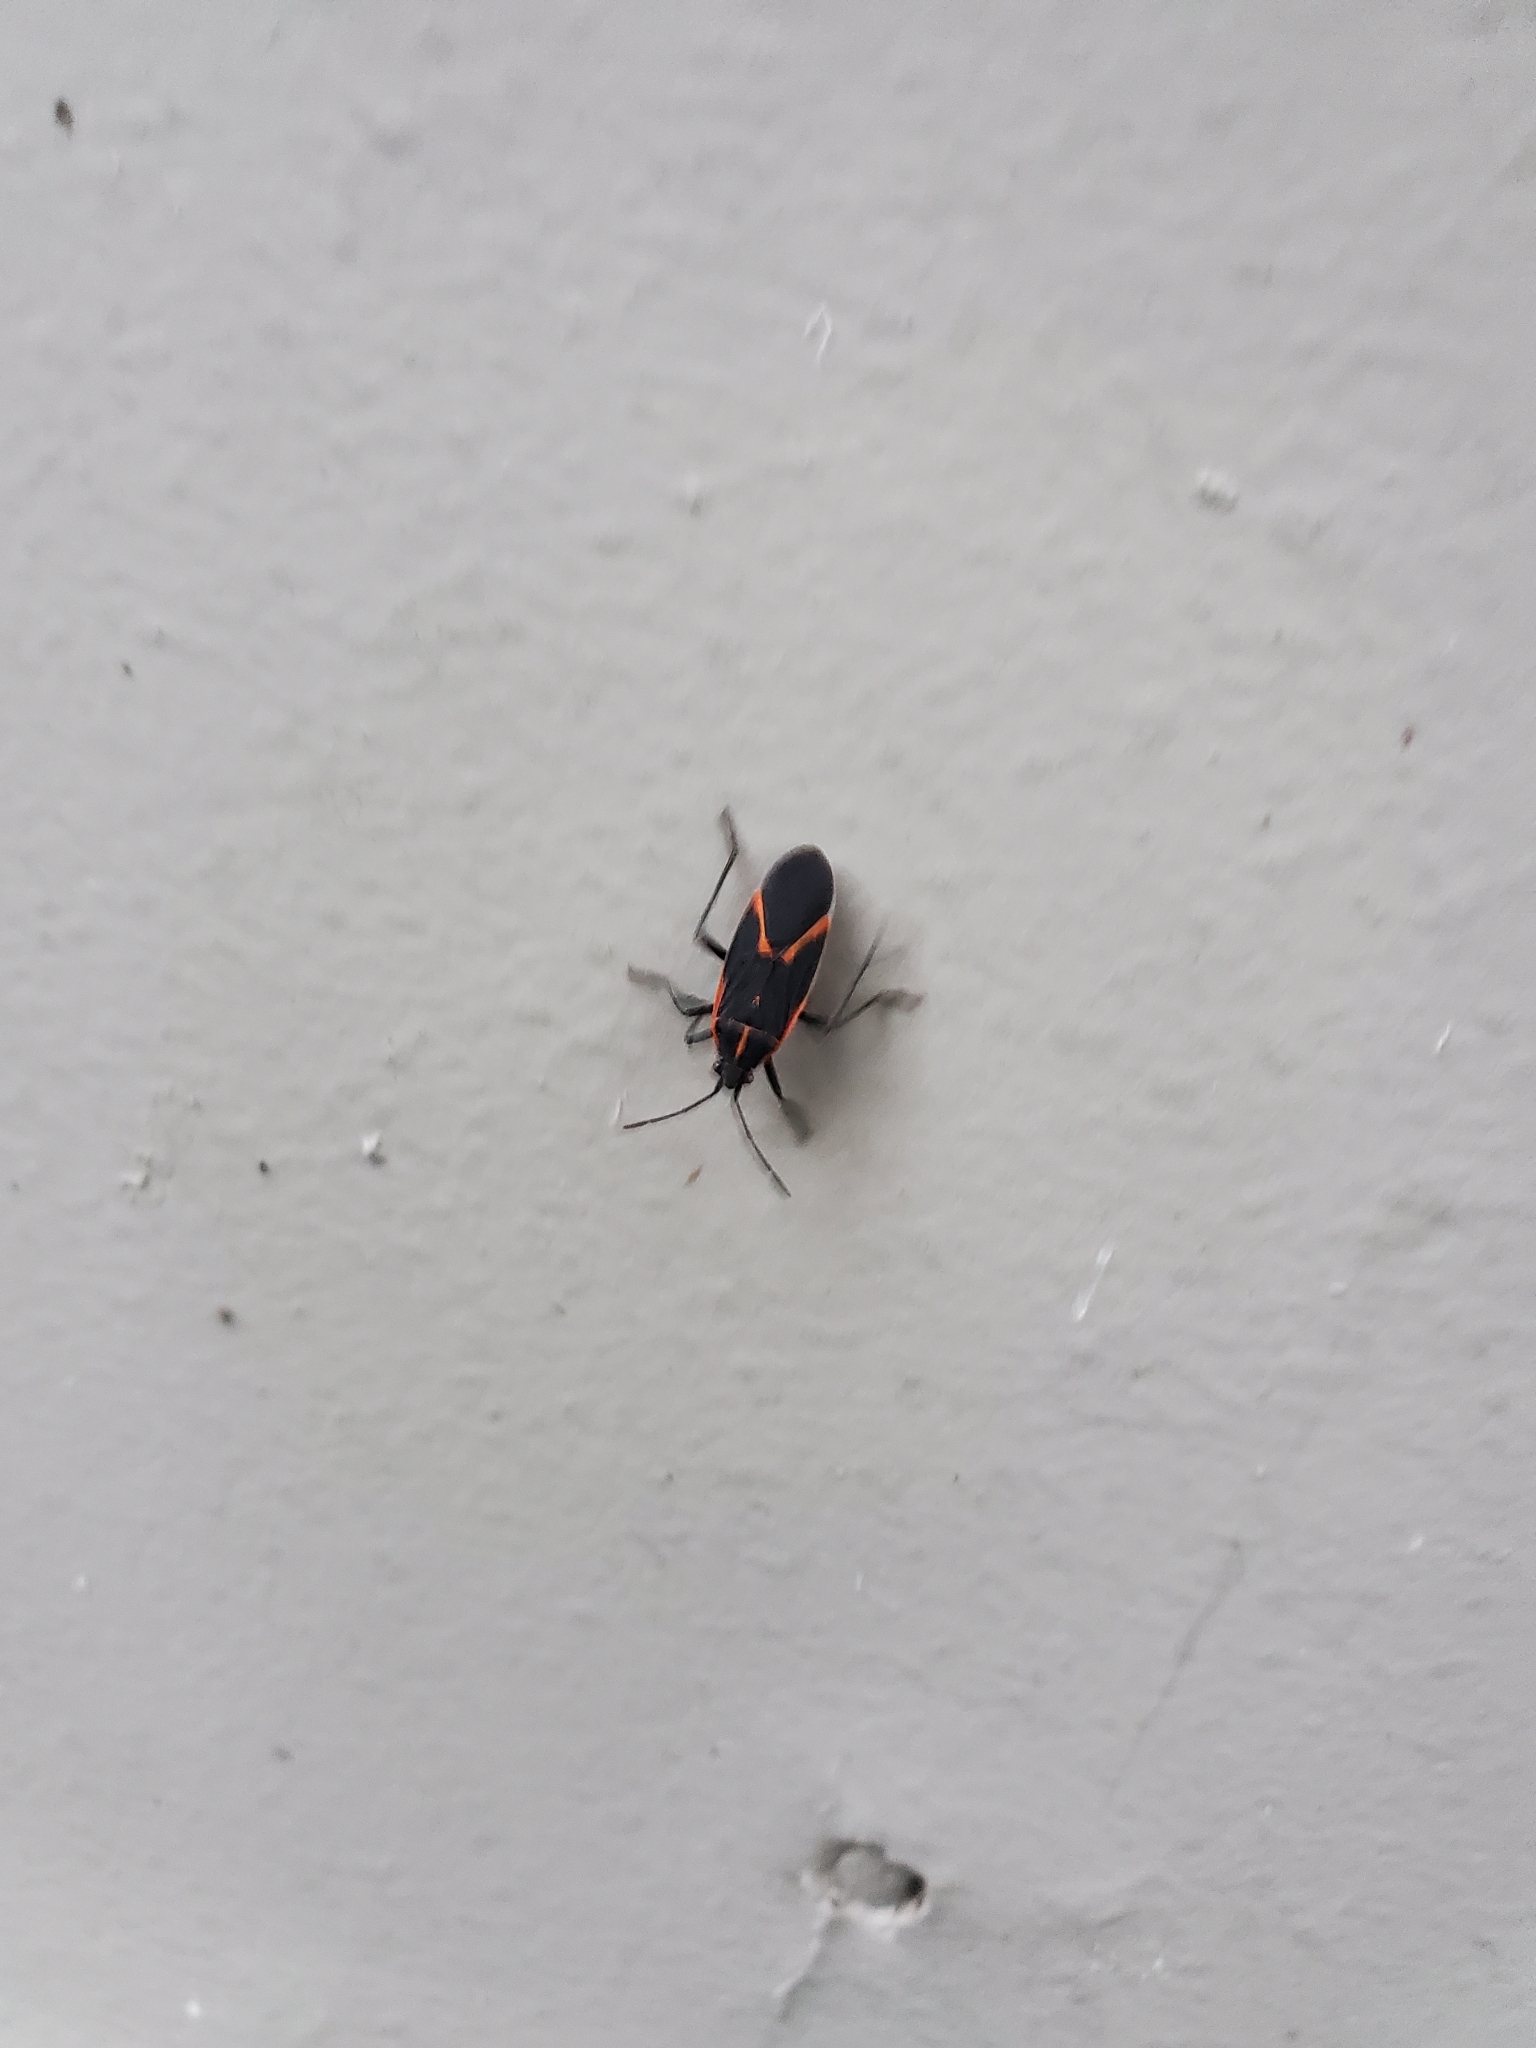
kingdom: Animalia
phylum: Arthropoda
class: Insecta
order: Hemiptera
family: Rhopalidae
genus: Boisea
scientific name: Boisea trivittata
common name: Boxelder bug
